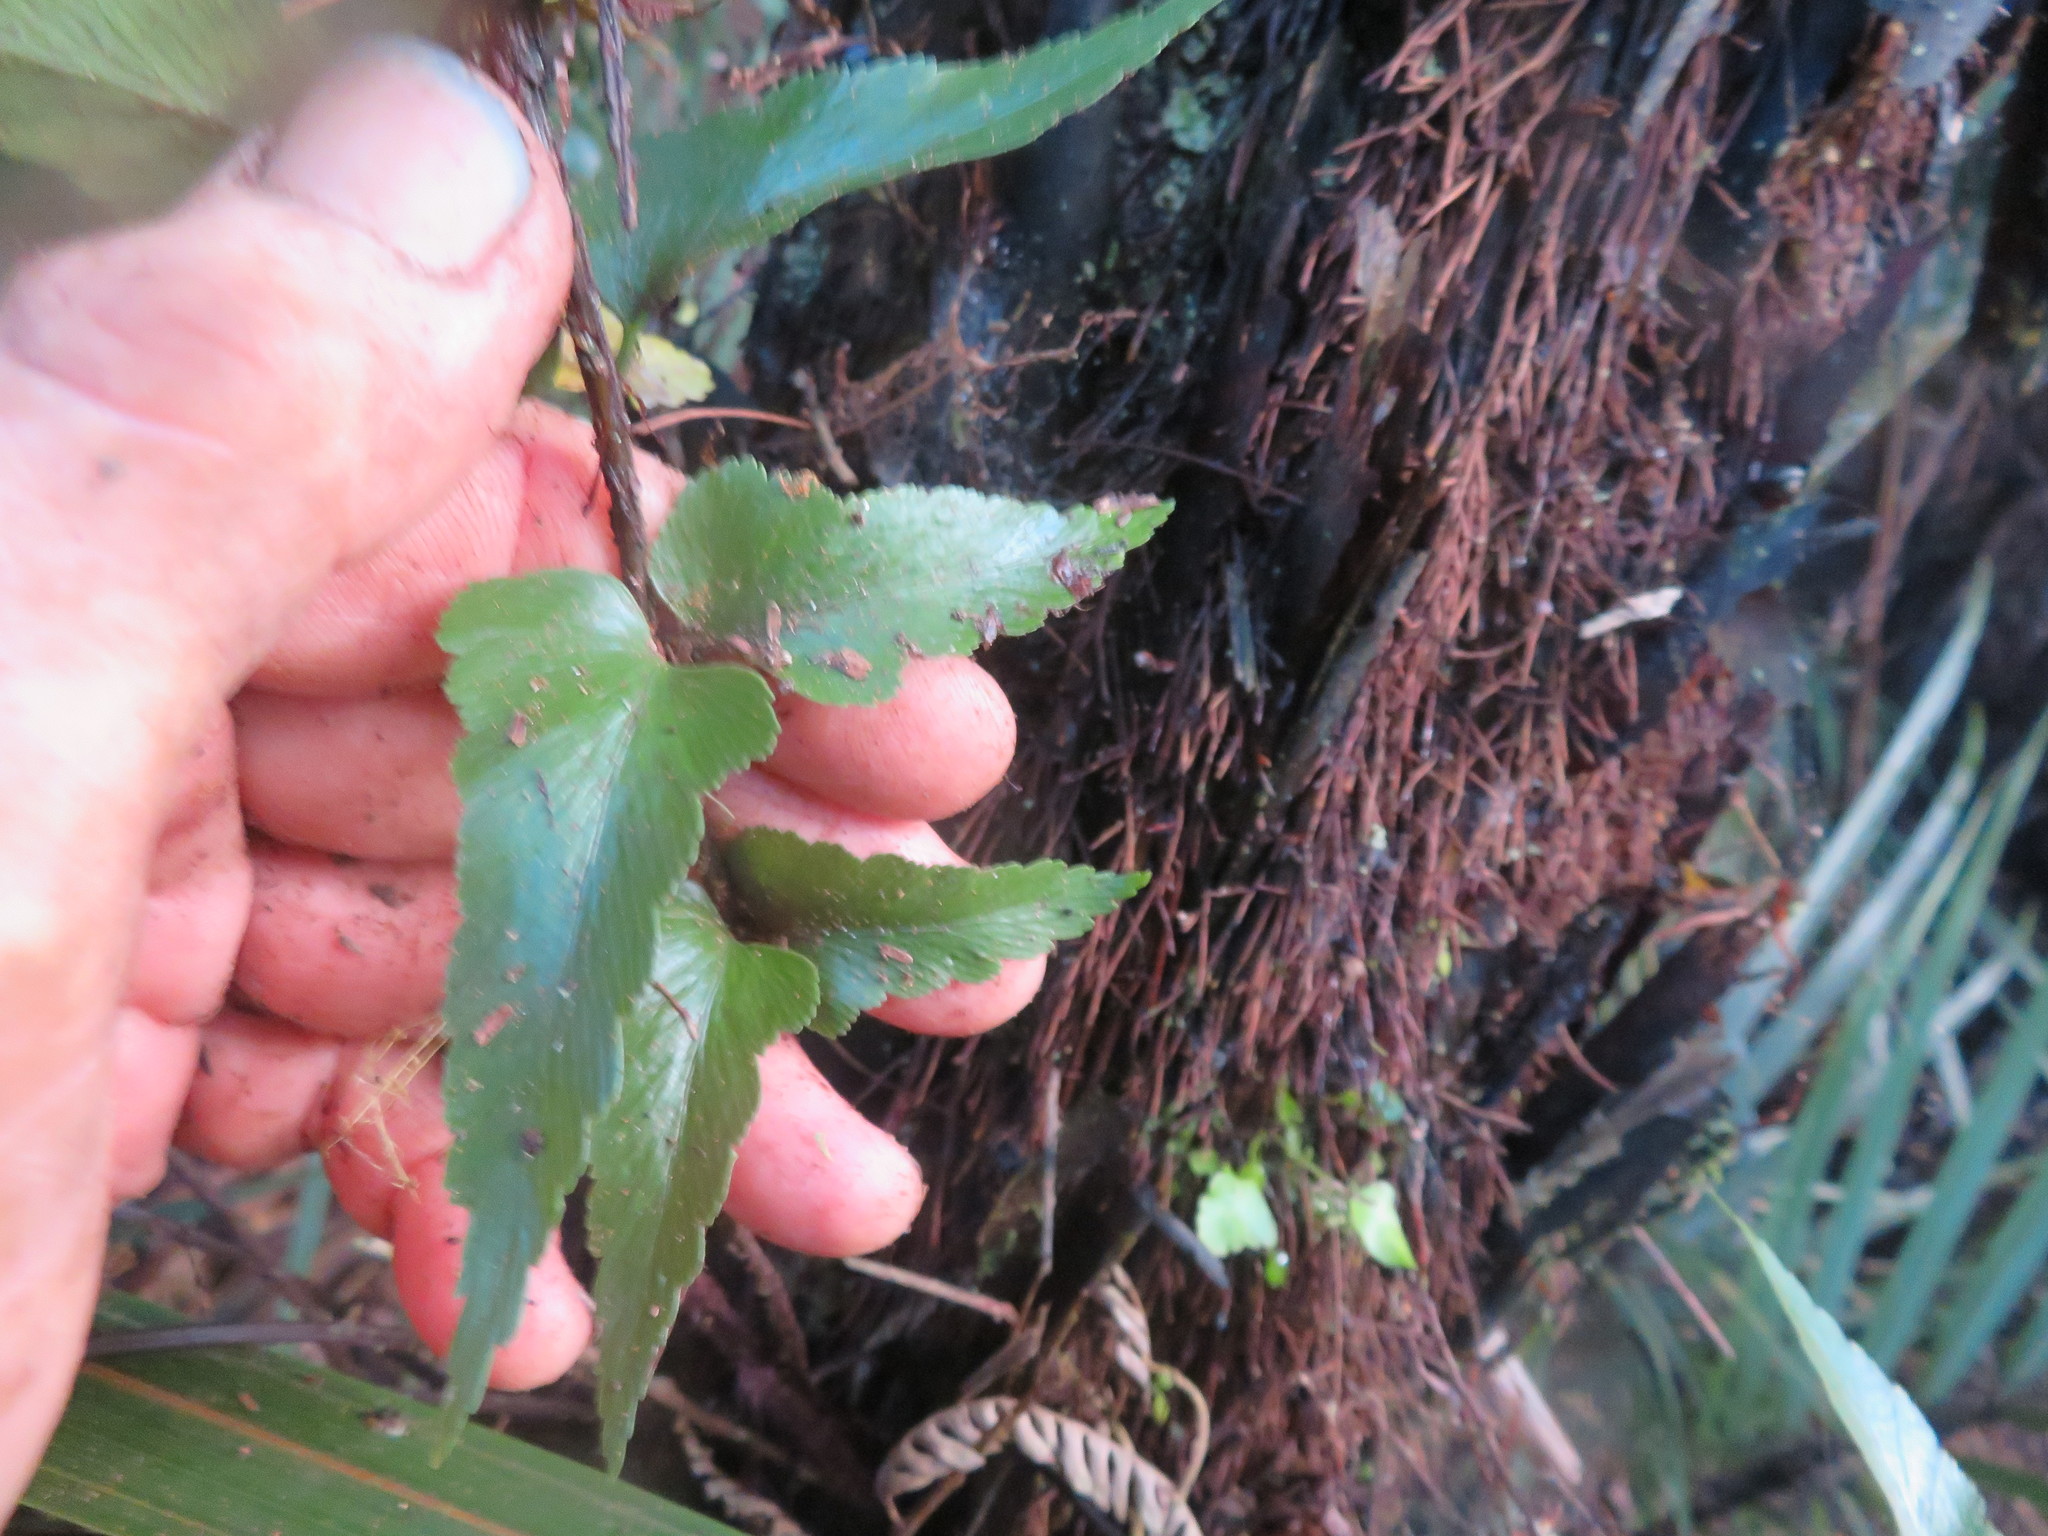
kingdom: Plantae
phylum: Tracheophyta
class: Polypodiopsida
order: Polypodiales
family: Aspleniaceae
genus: Asplenium
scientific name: Asplenium polyodon
